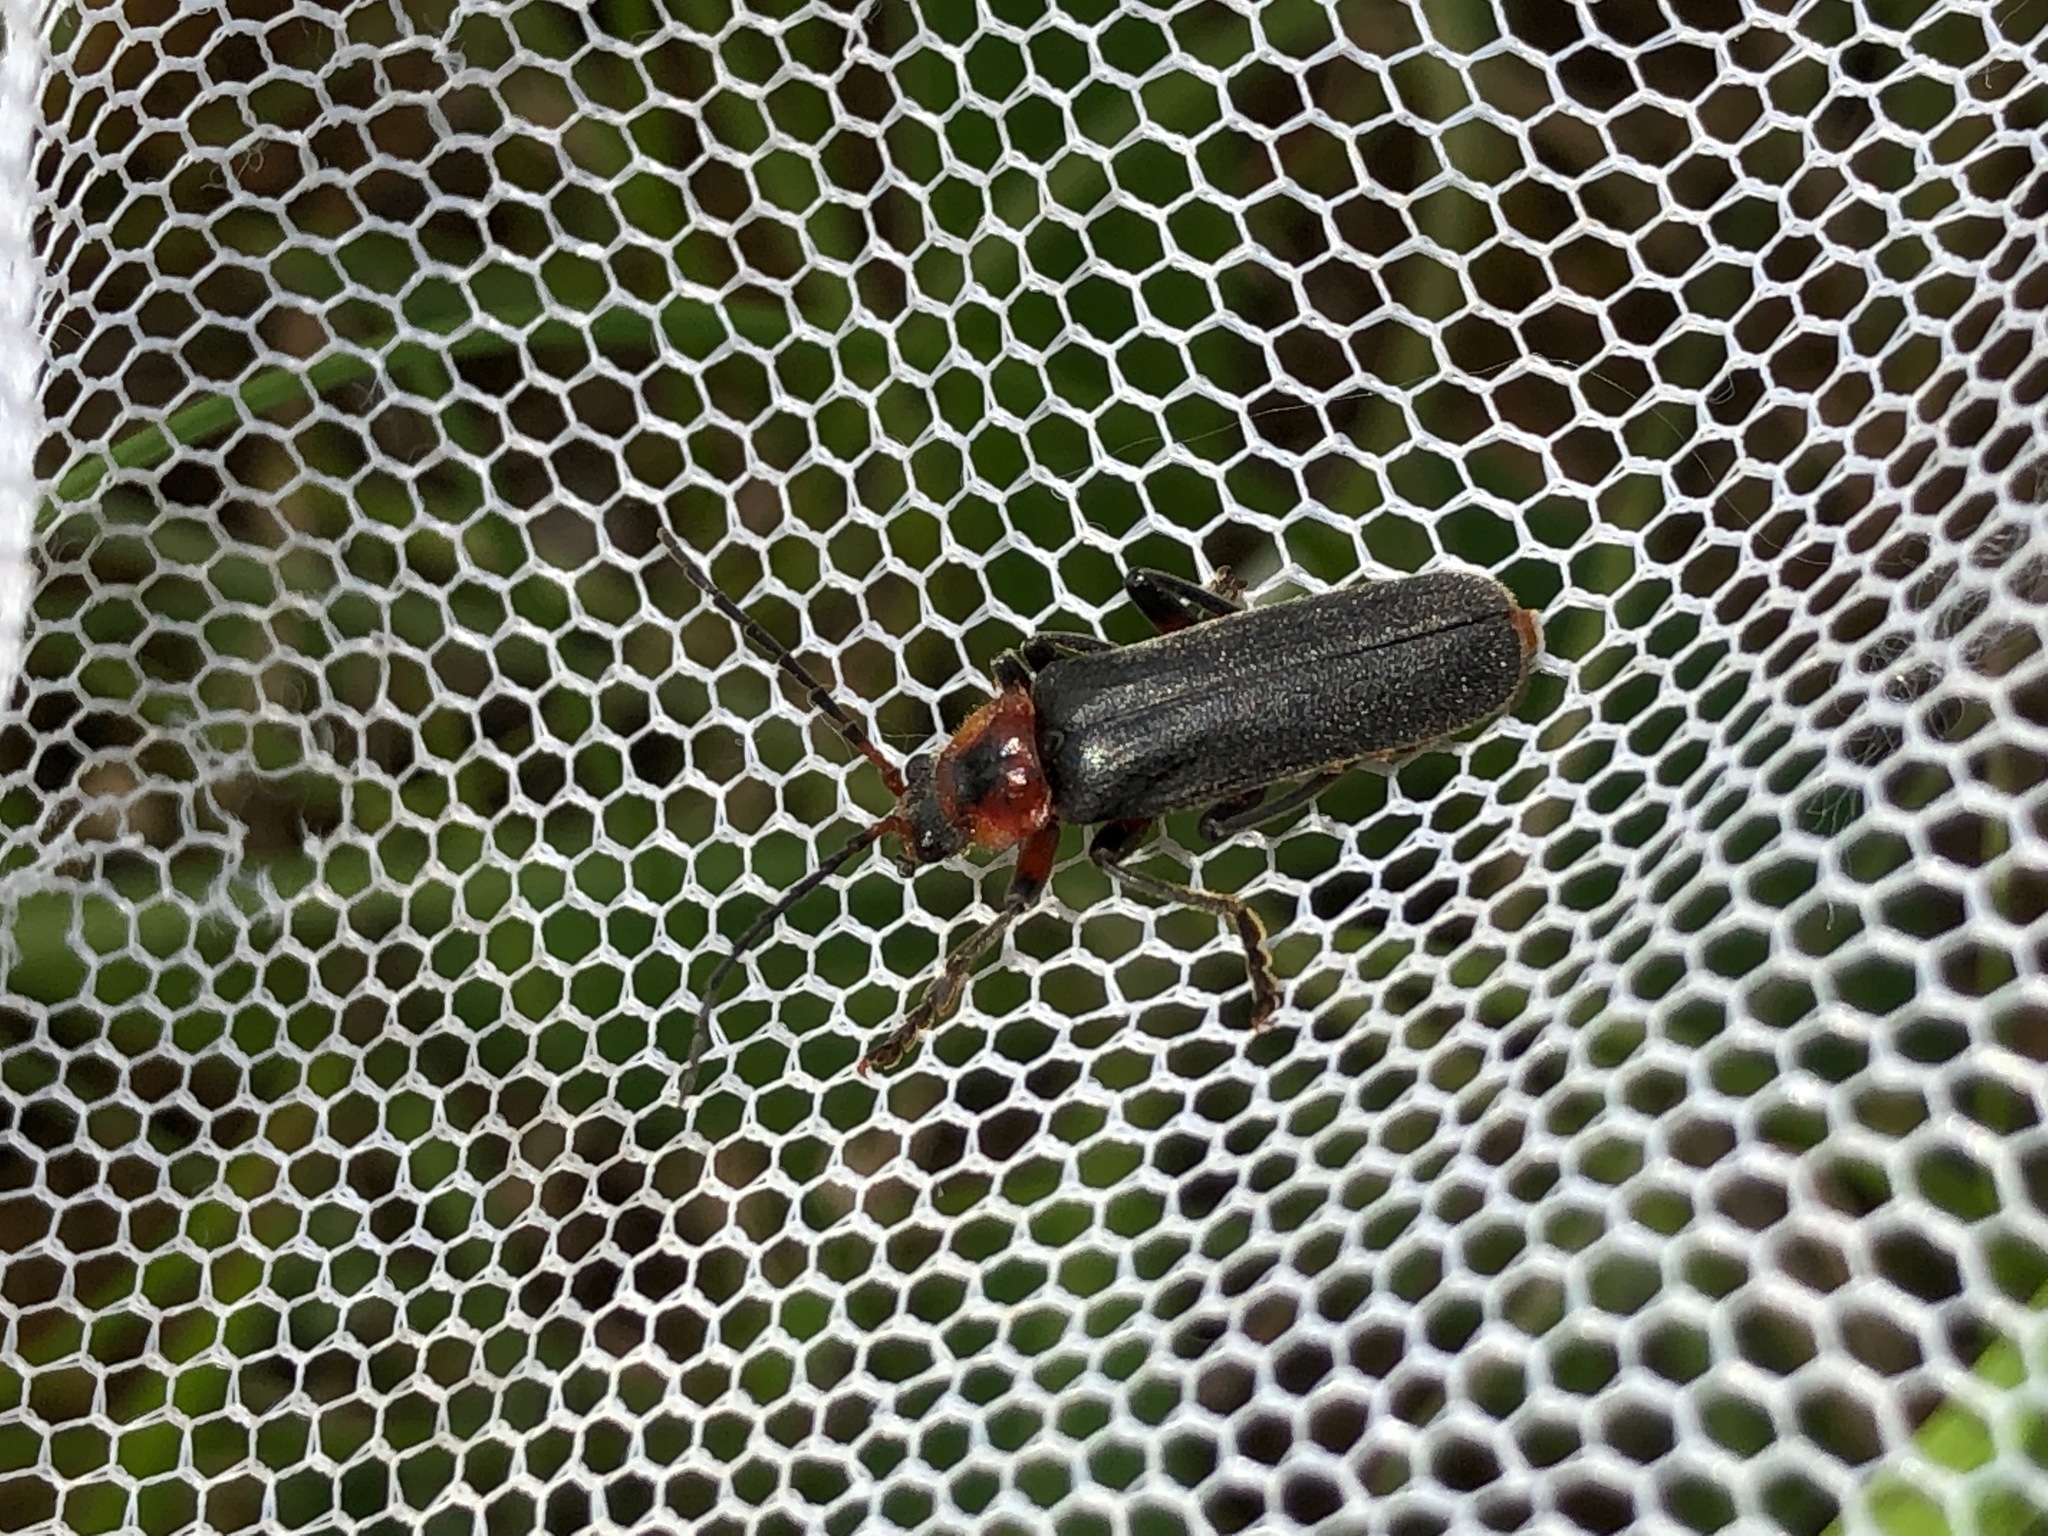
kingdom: Animalia
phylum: Arthropoda
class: Insecta
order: Coleoptera
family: Cantharidae
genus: Cantharis
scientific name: Cantharis rustica
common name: Soldier beetle
